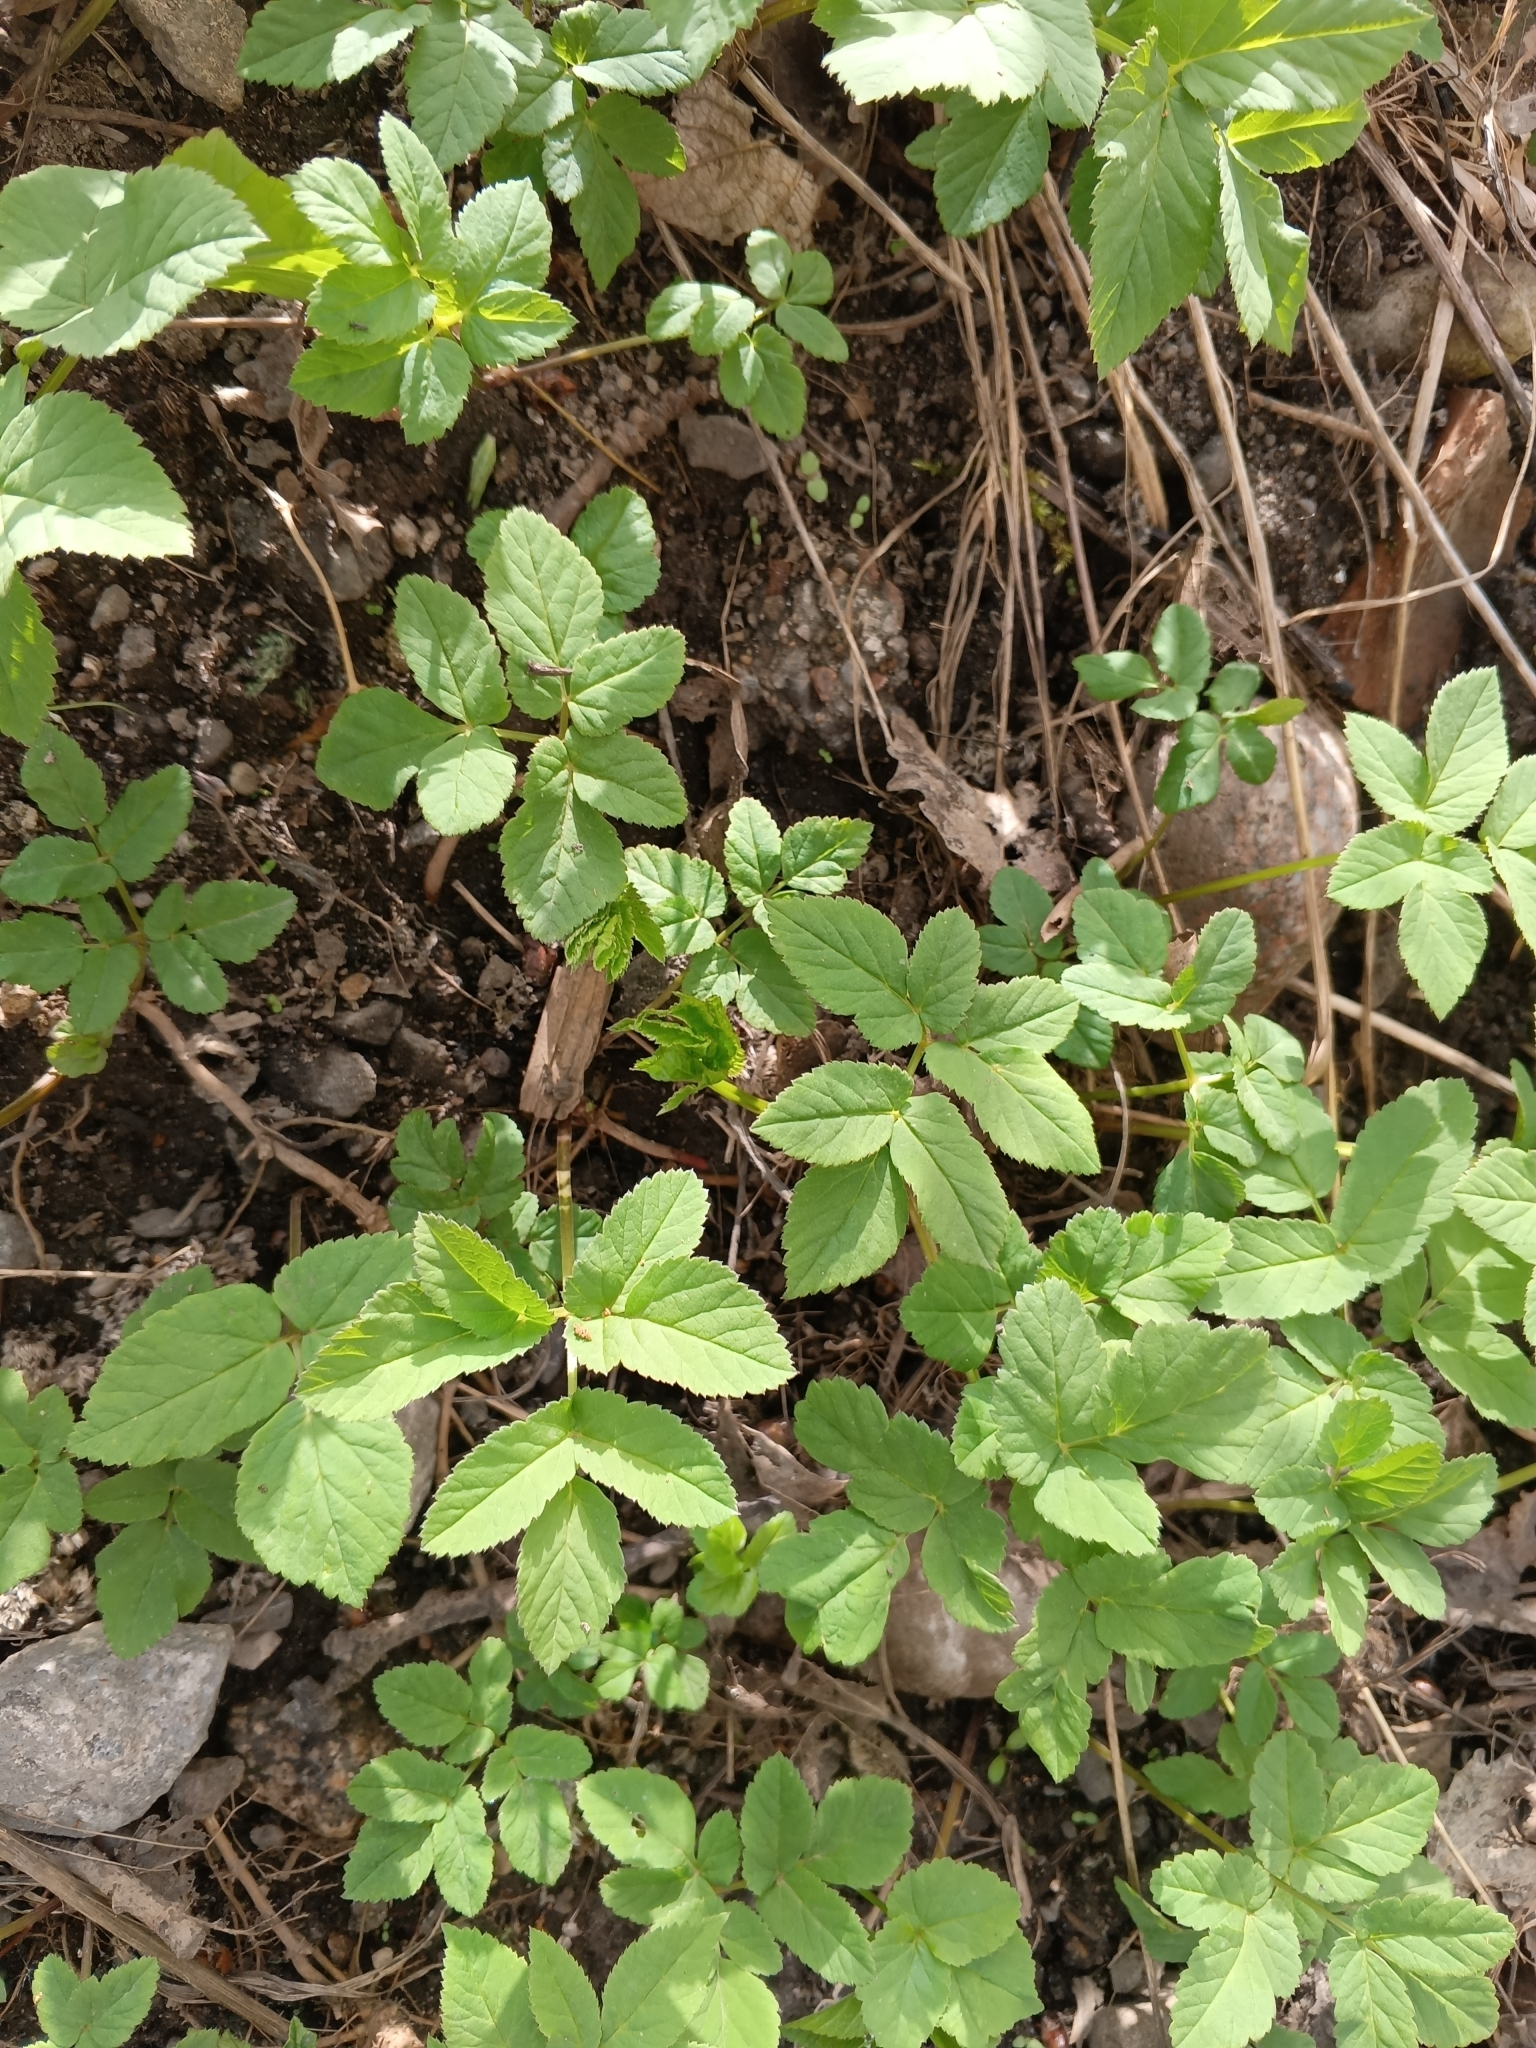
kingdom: Plantae
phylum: Tracheophyta
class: Magnoliopsida
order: Apiales
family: Apiaceae
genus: Aegopodium
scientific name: Aegopodium podagraria
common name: Ground-elder
